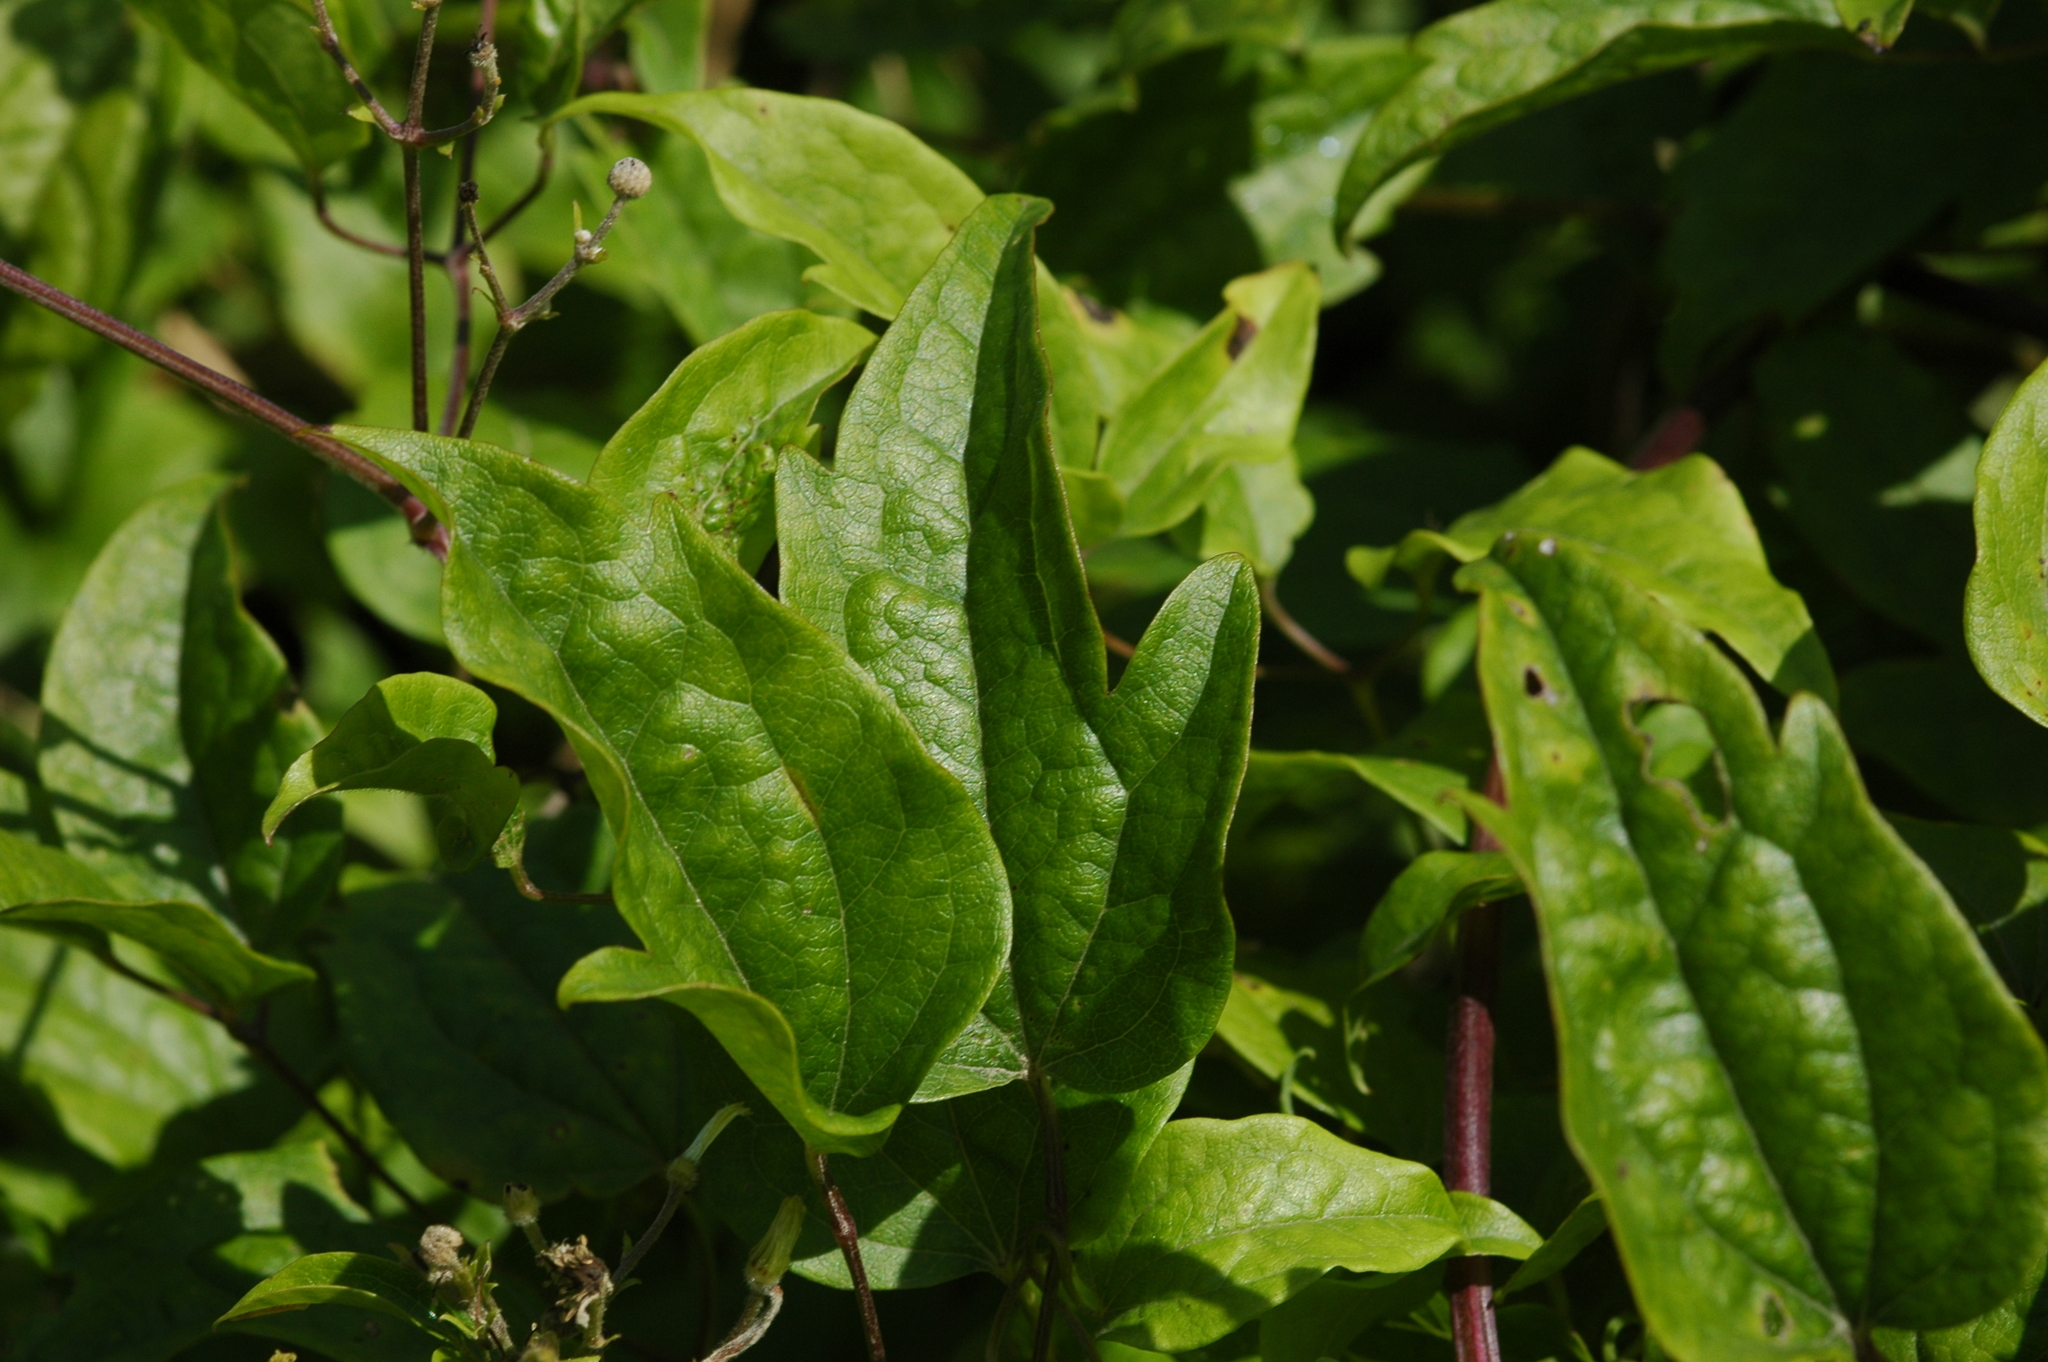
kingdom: Plantae
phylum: Tracheophyta
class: Magnoliopsida
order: Ranunculales
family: Ranunculaceae
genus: Clematis
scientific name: Clematis vitalba
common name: Evergreen clematis
